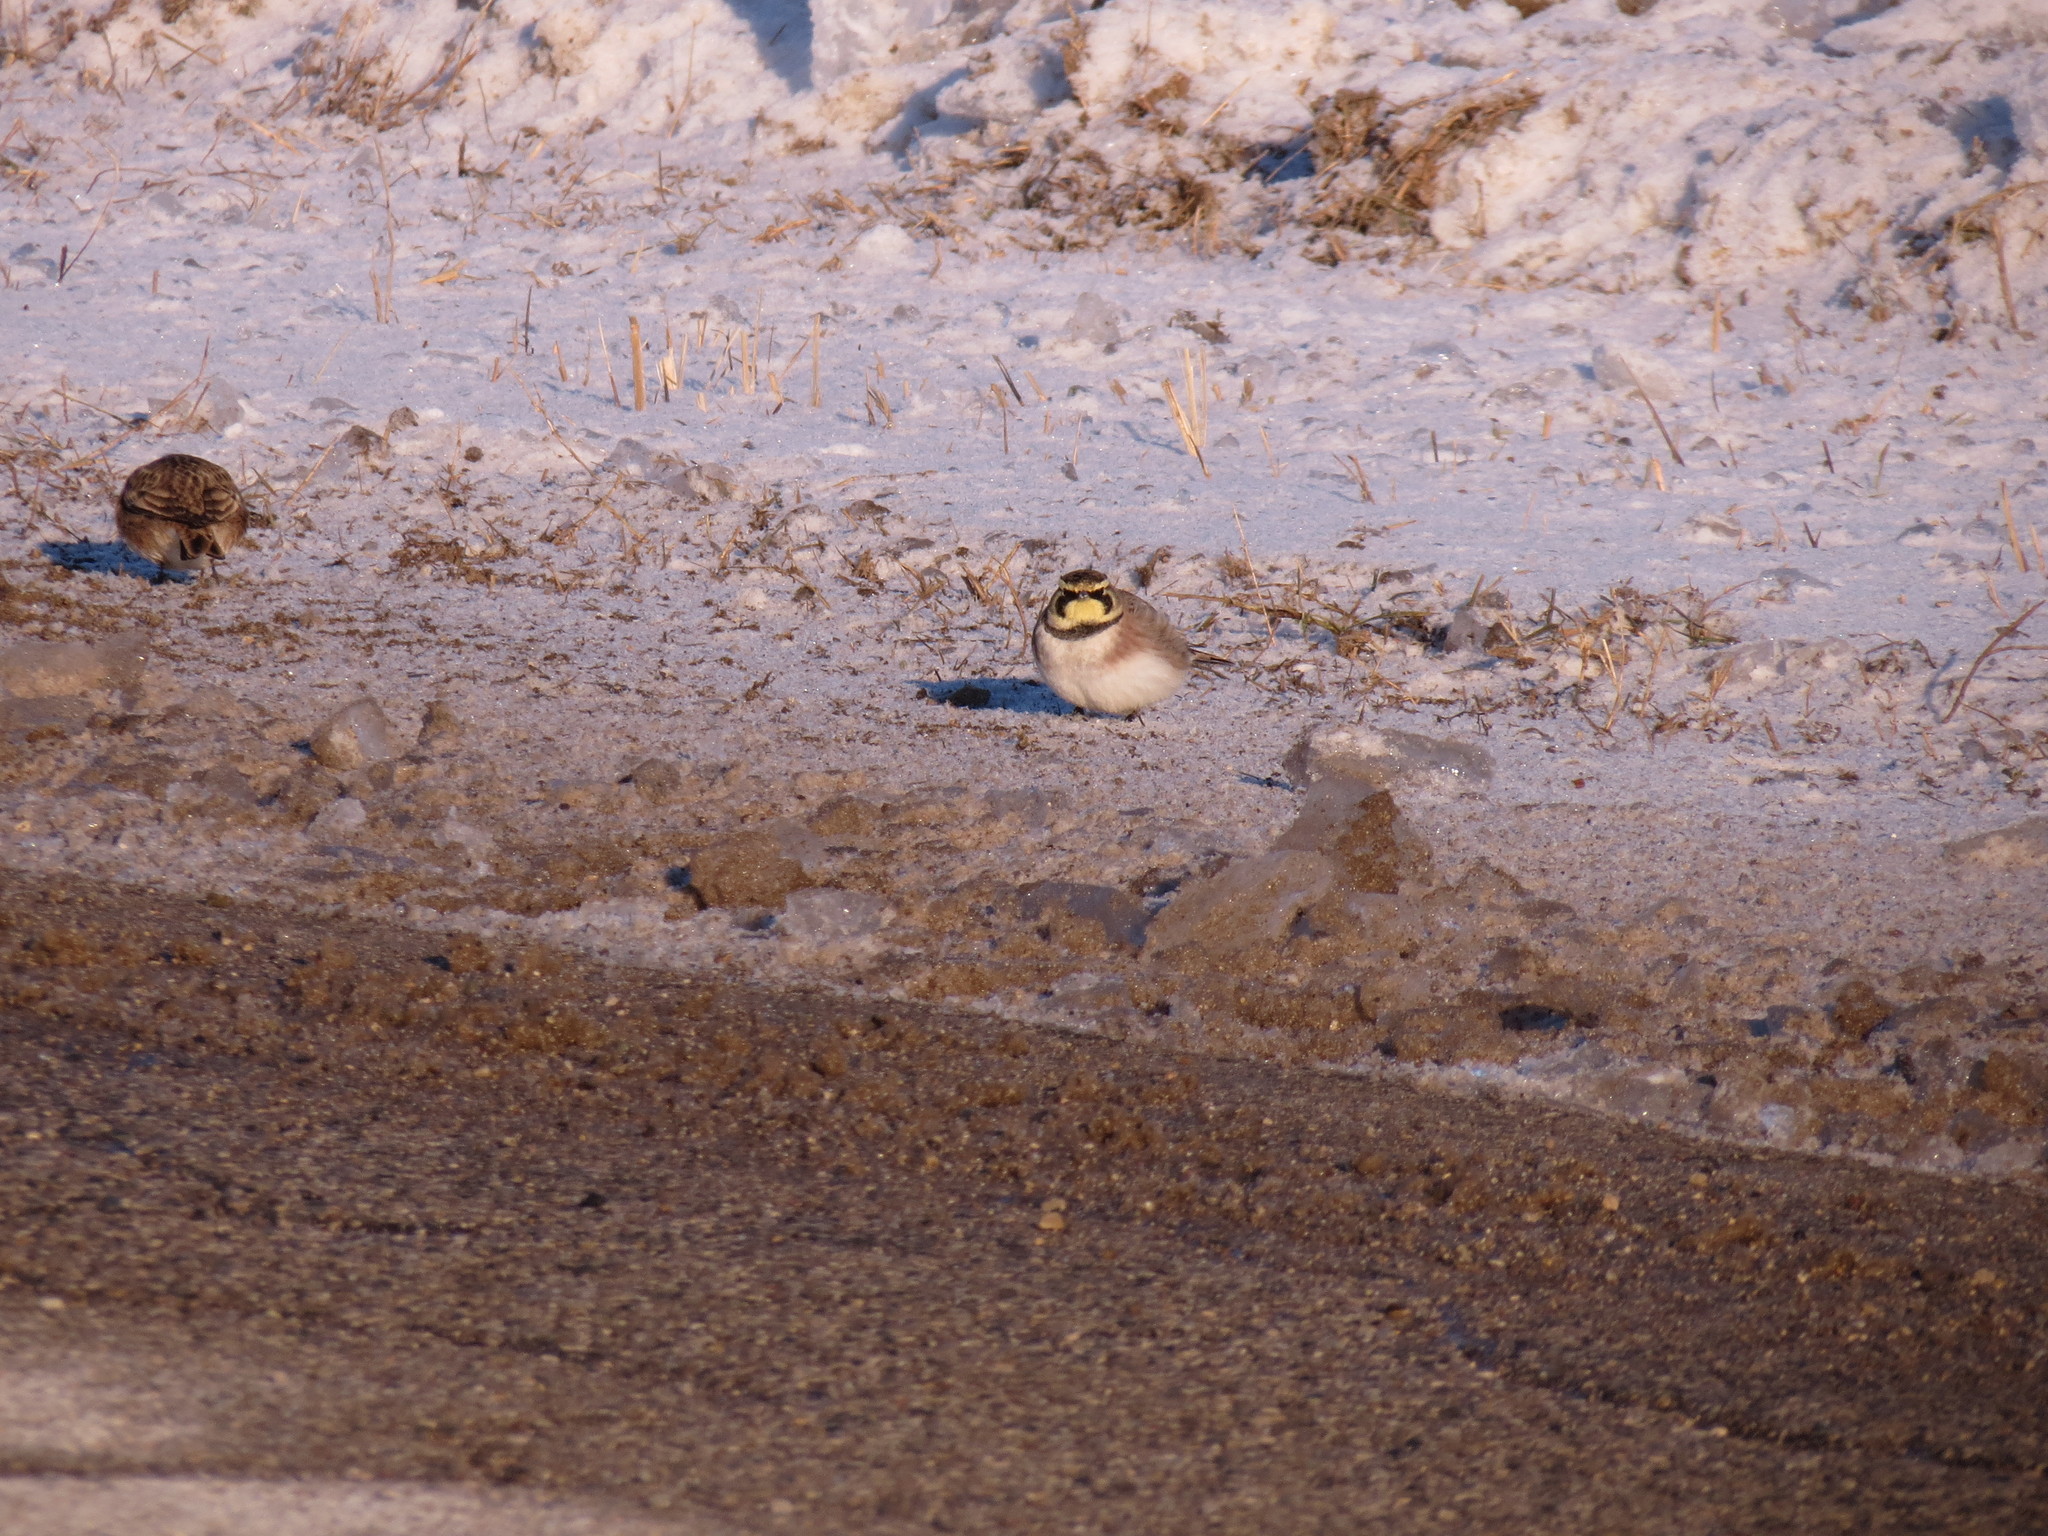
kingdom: Animalia
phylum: Chordata
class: Aves
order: Passeriformes
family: Alaudidae
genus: Eremophila
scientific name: Eremophila alpestris
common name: Horned lark
